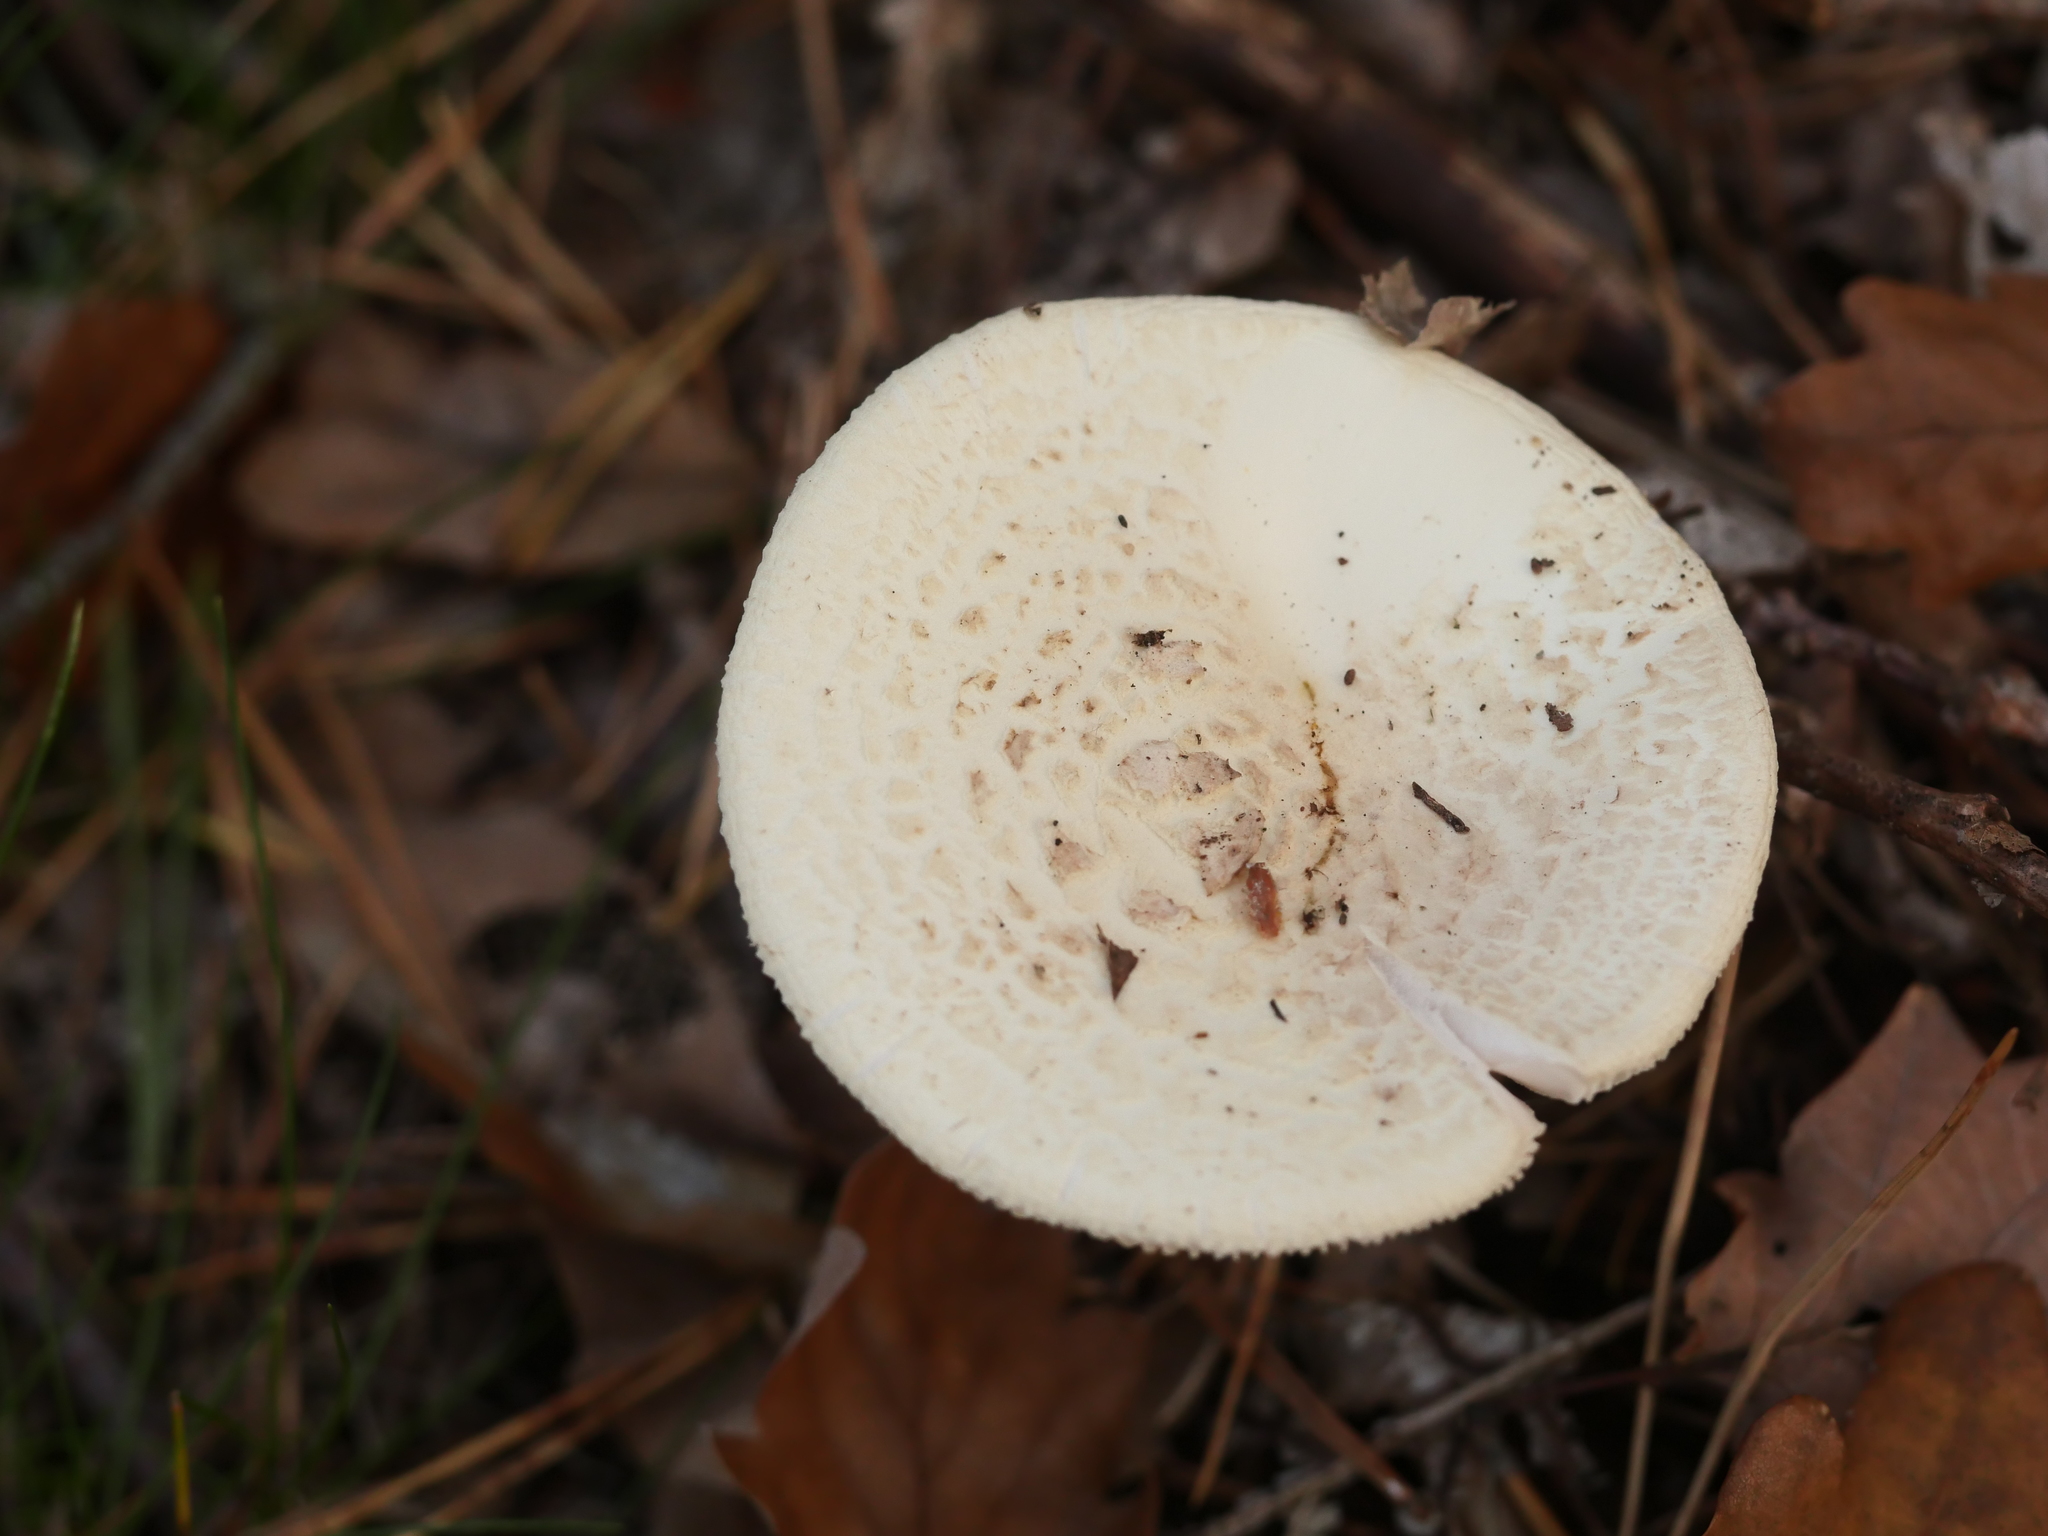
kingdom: Fungi
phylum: Basidiomycota
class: Agaricomycetes
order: Agaricales
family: Amanitaceae
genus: Amanita
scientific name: Amanita citrina
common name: False death-cap
